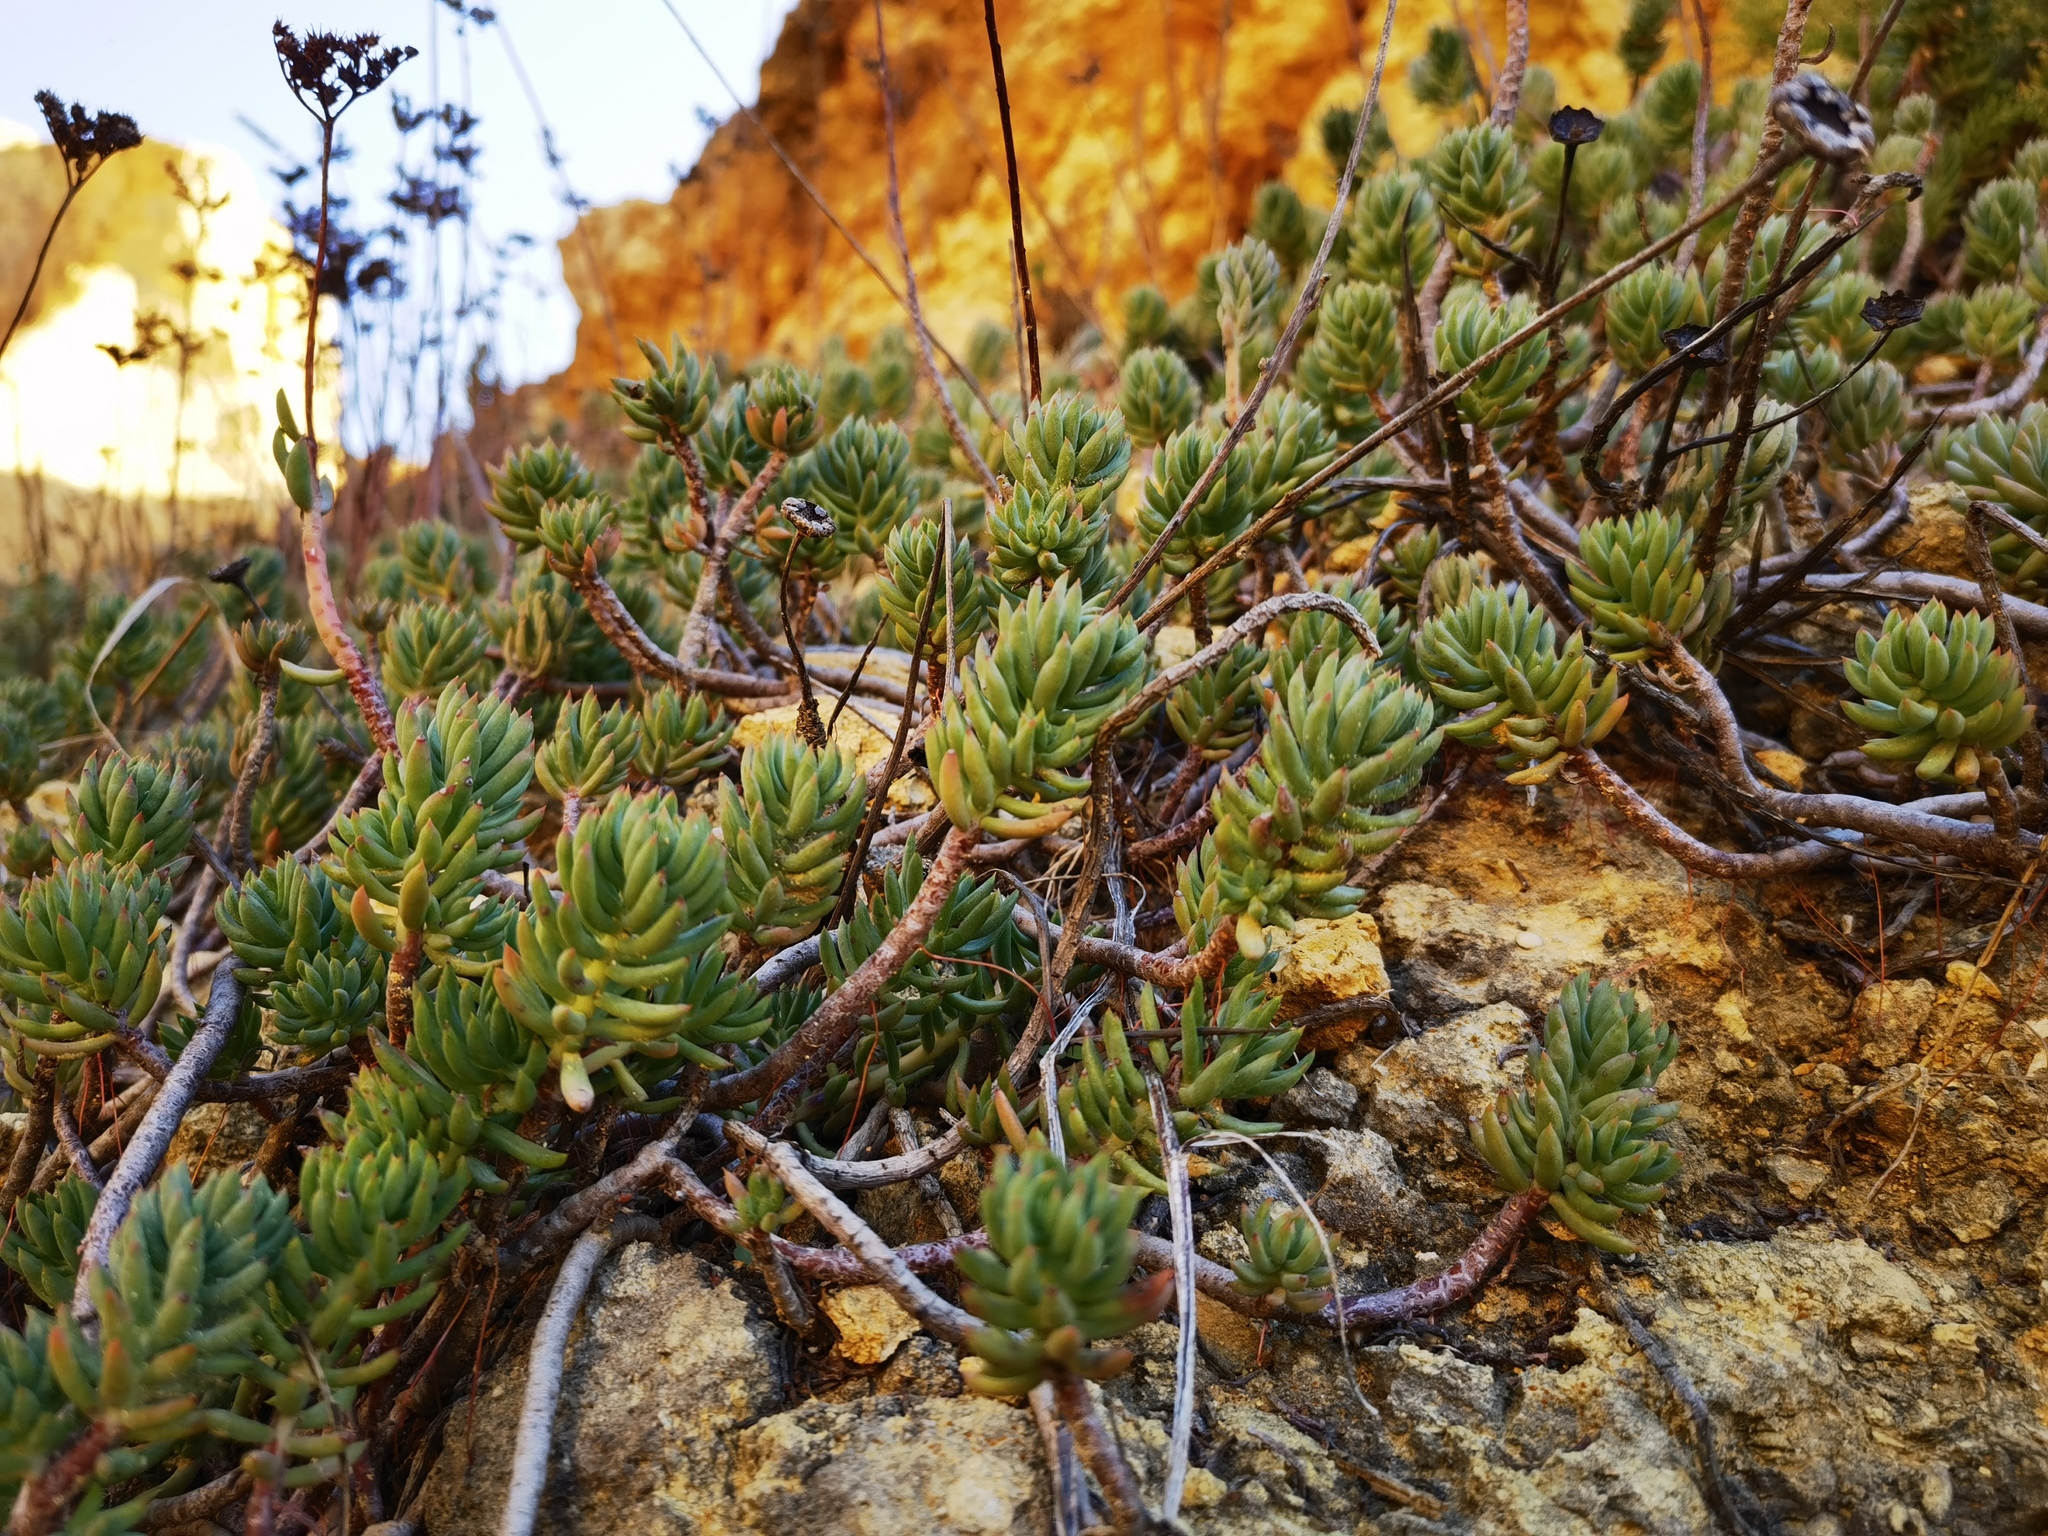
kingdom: Plantae
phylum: Tracheophyta
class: Magnoliopsida
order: Saxifragales
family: Crassulaceae
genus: Petrosedum
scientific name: Petrosedum sediforme
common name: Pale stonecrop
